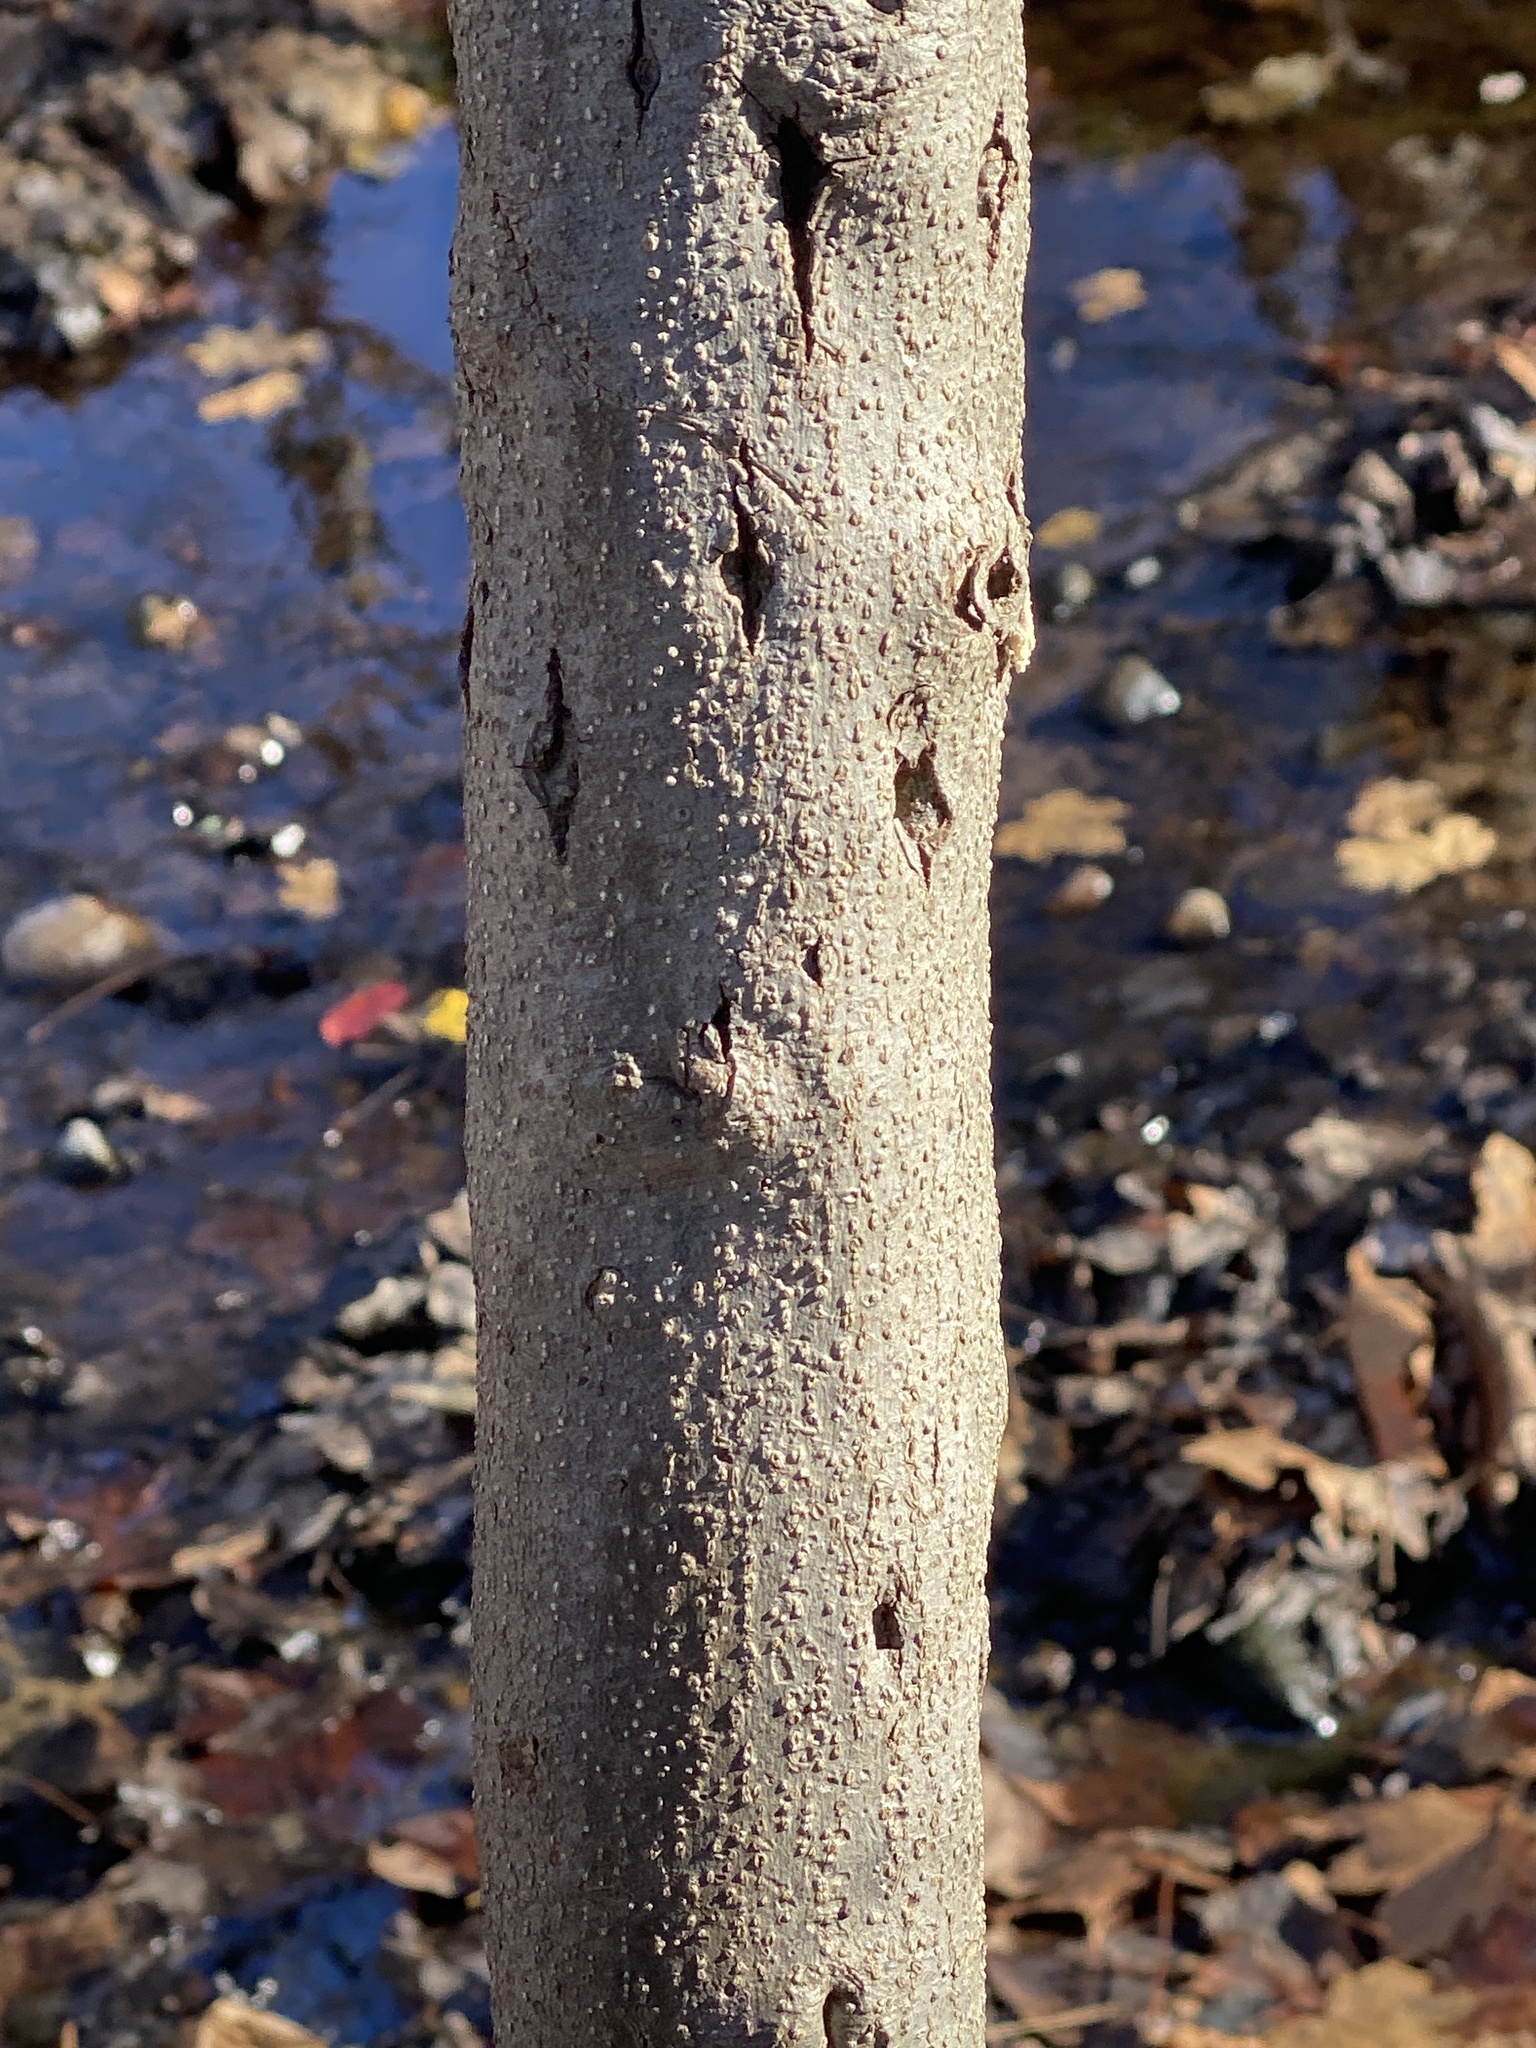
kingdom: Plantae
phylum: Tracheophyta
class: Magnoliopsida
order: Laurales
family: Lauraceae
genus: Lindera
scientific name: Lindera benzoin
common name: Spicebush
